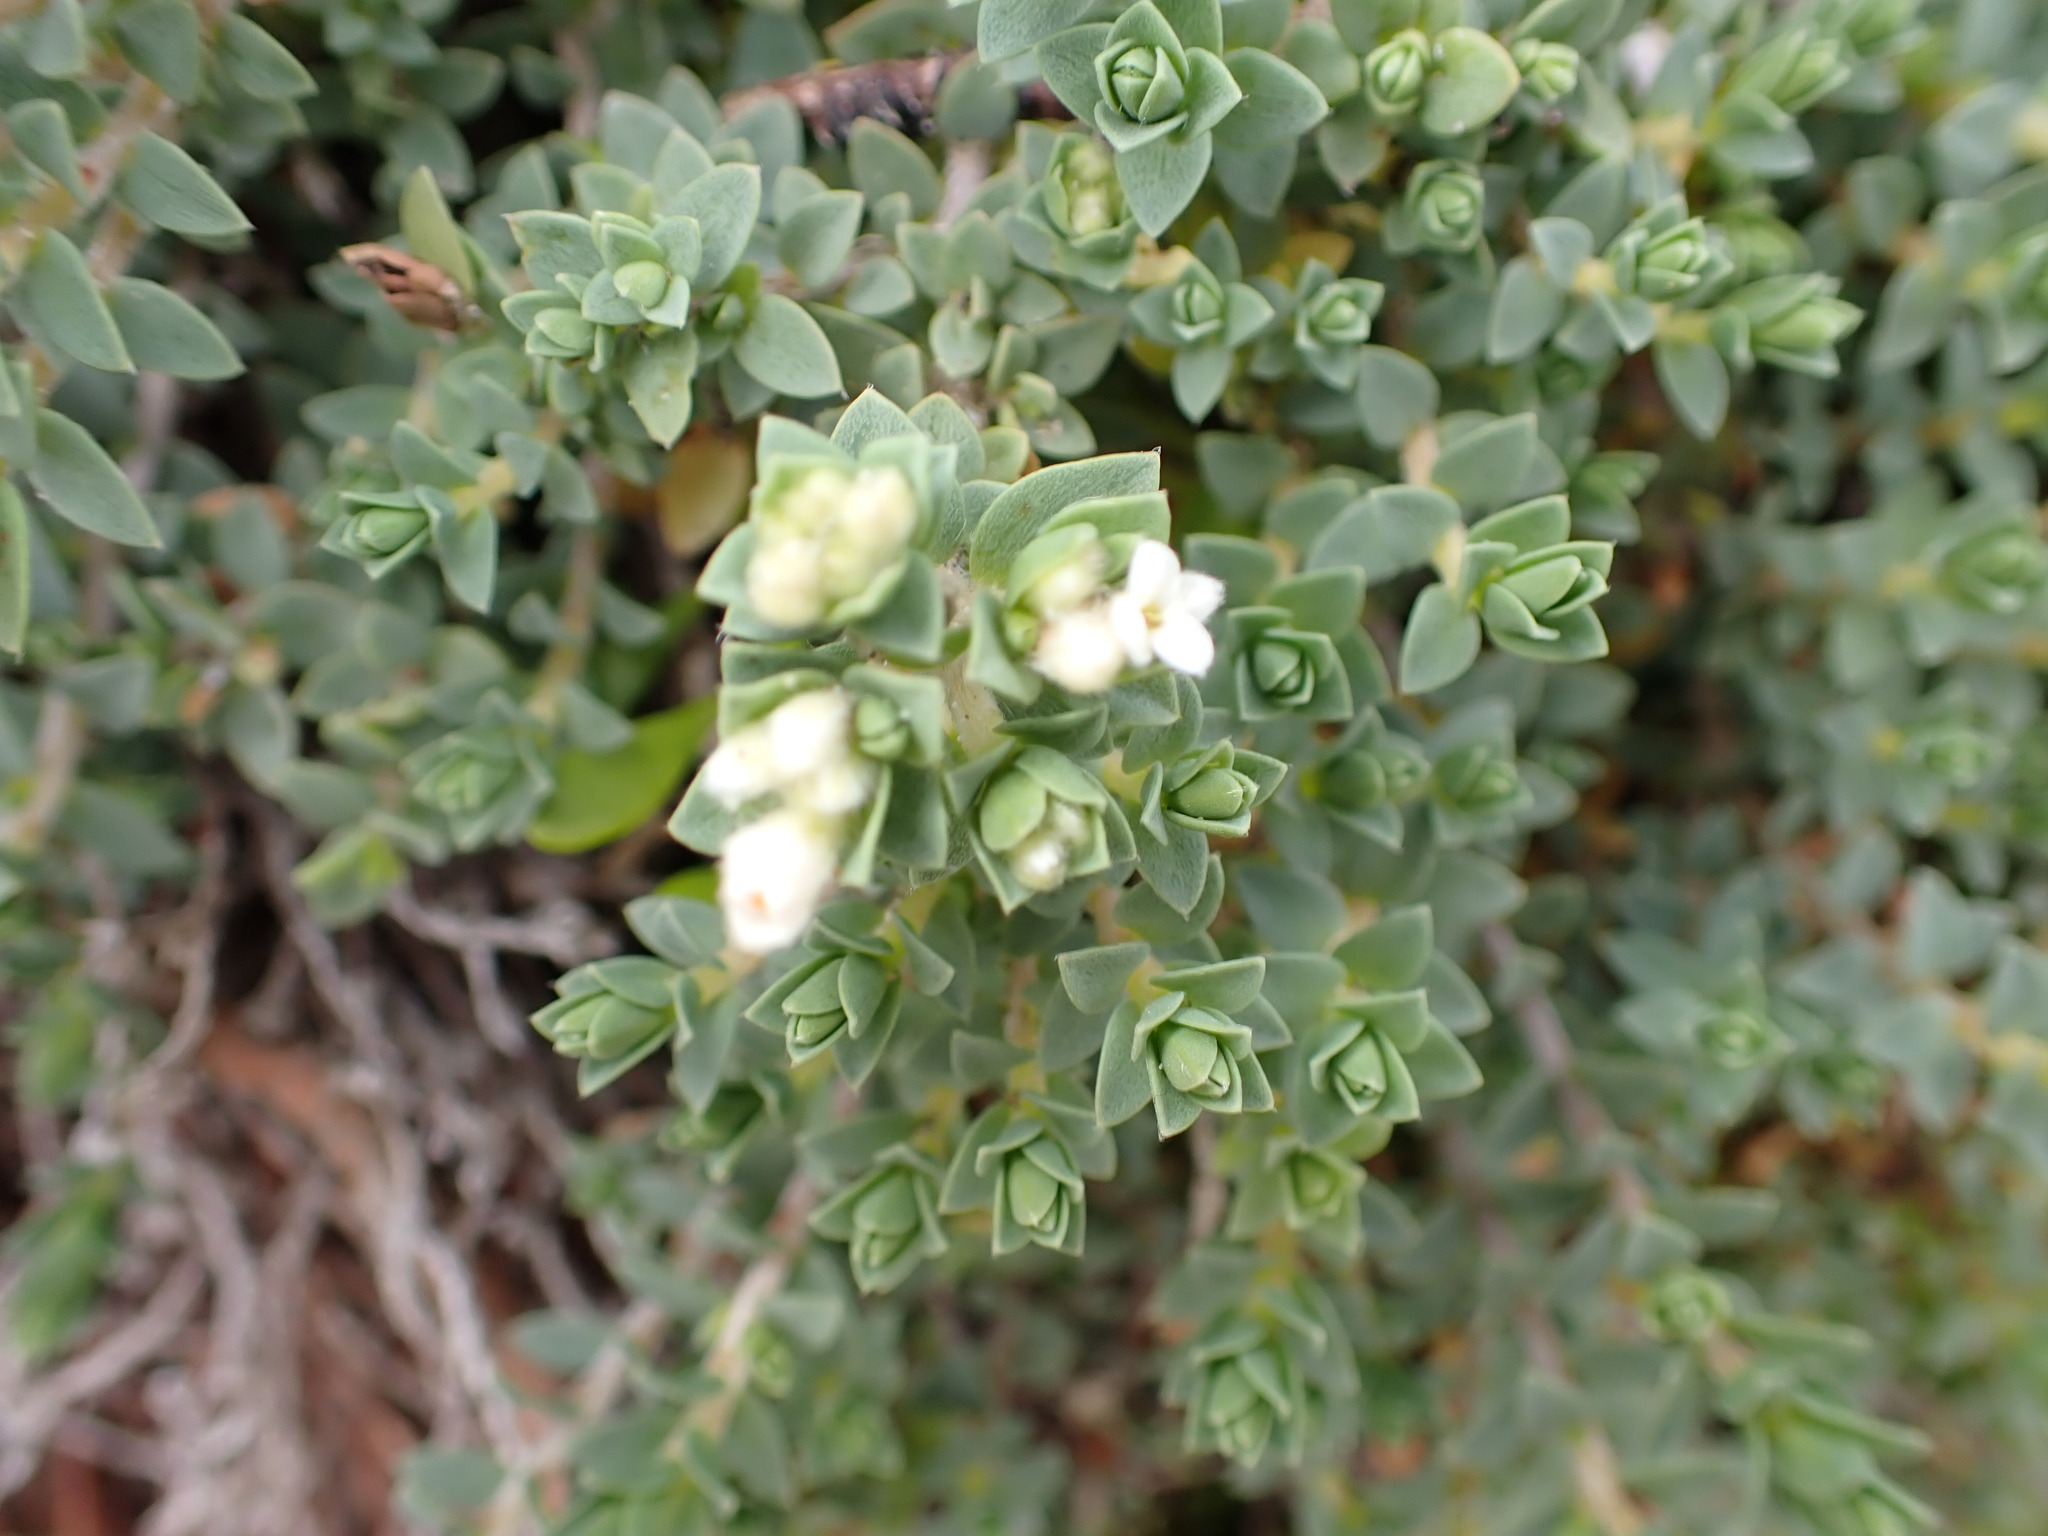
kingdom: Plantae
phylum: Tracheophyta
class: Magnoliopsida
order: Malvales
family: Thymelaeaceae
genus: Pimelea
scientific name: Pimelea villosa
